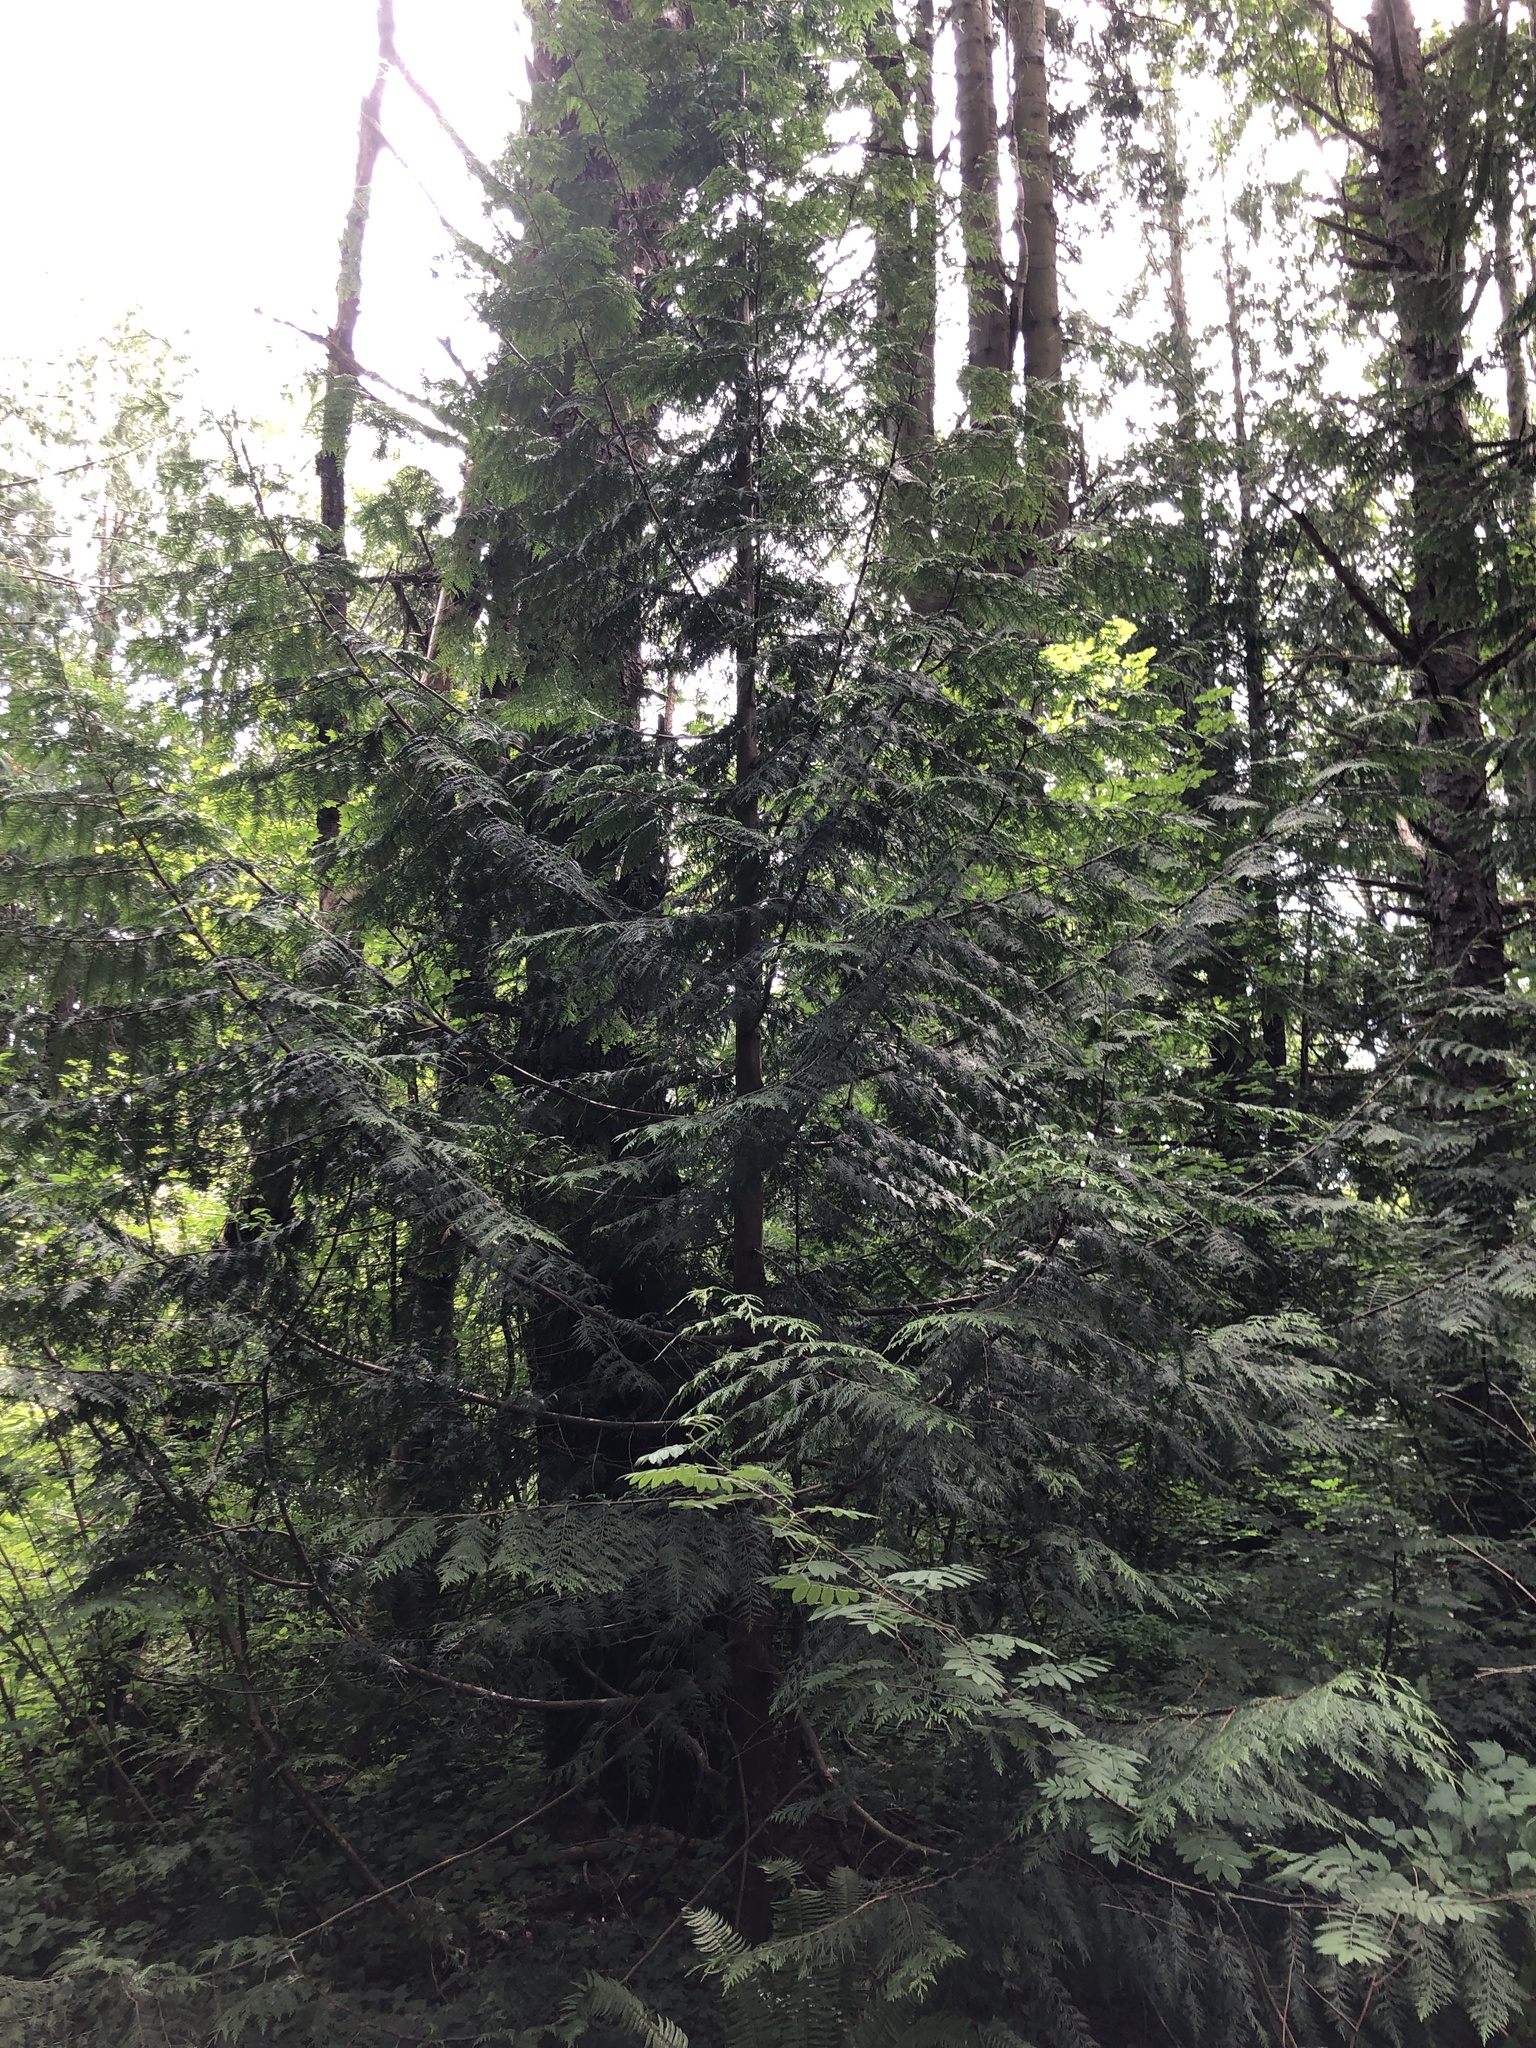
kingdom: Plantae
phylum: Tracheophyta
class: Pinopsida
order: Pinales
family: Cupressaceae
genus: Thuja
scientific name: Thuja plicata
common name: Western red-cedar
